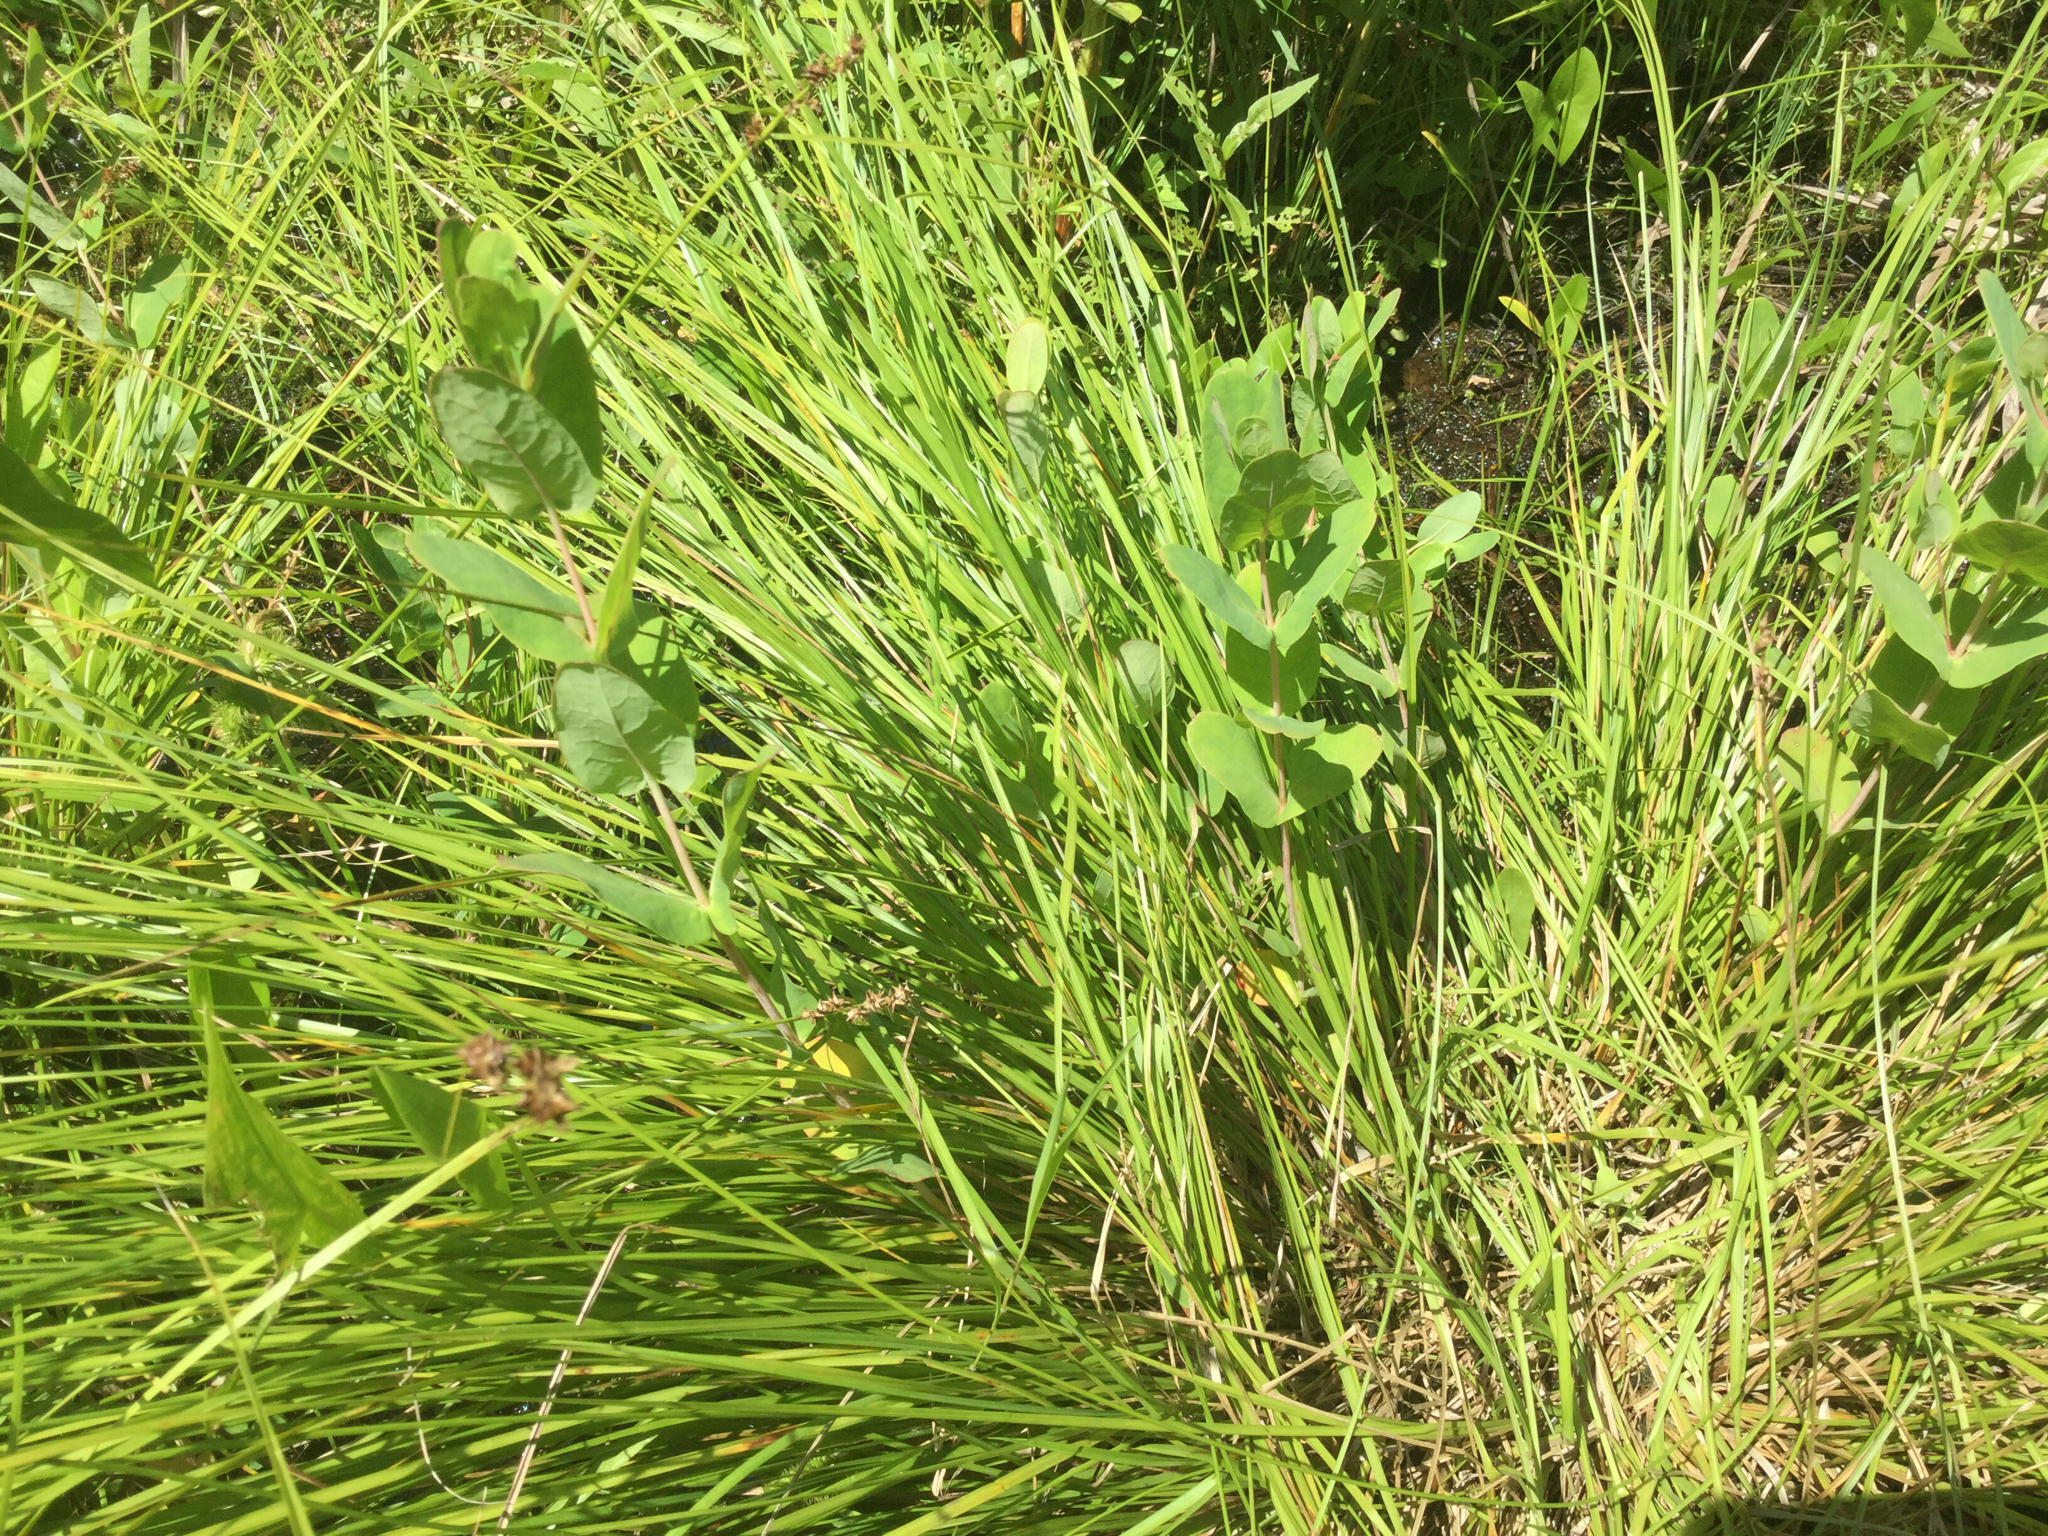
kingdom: Plantae
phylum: Tracheophyta
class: Magnoliopsida
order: Malpighiales
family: Hypericaceae
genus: Triadenum
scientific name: Triadenum virginicum
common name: Marsh st. john's-wort
